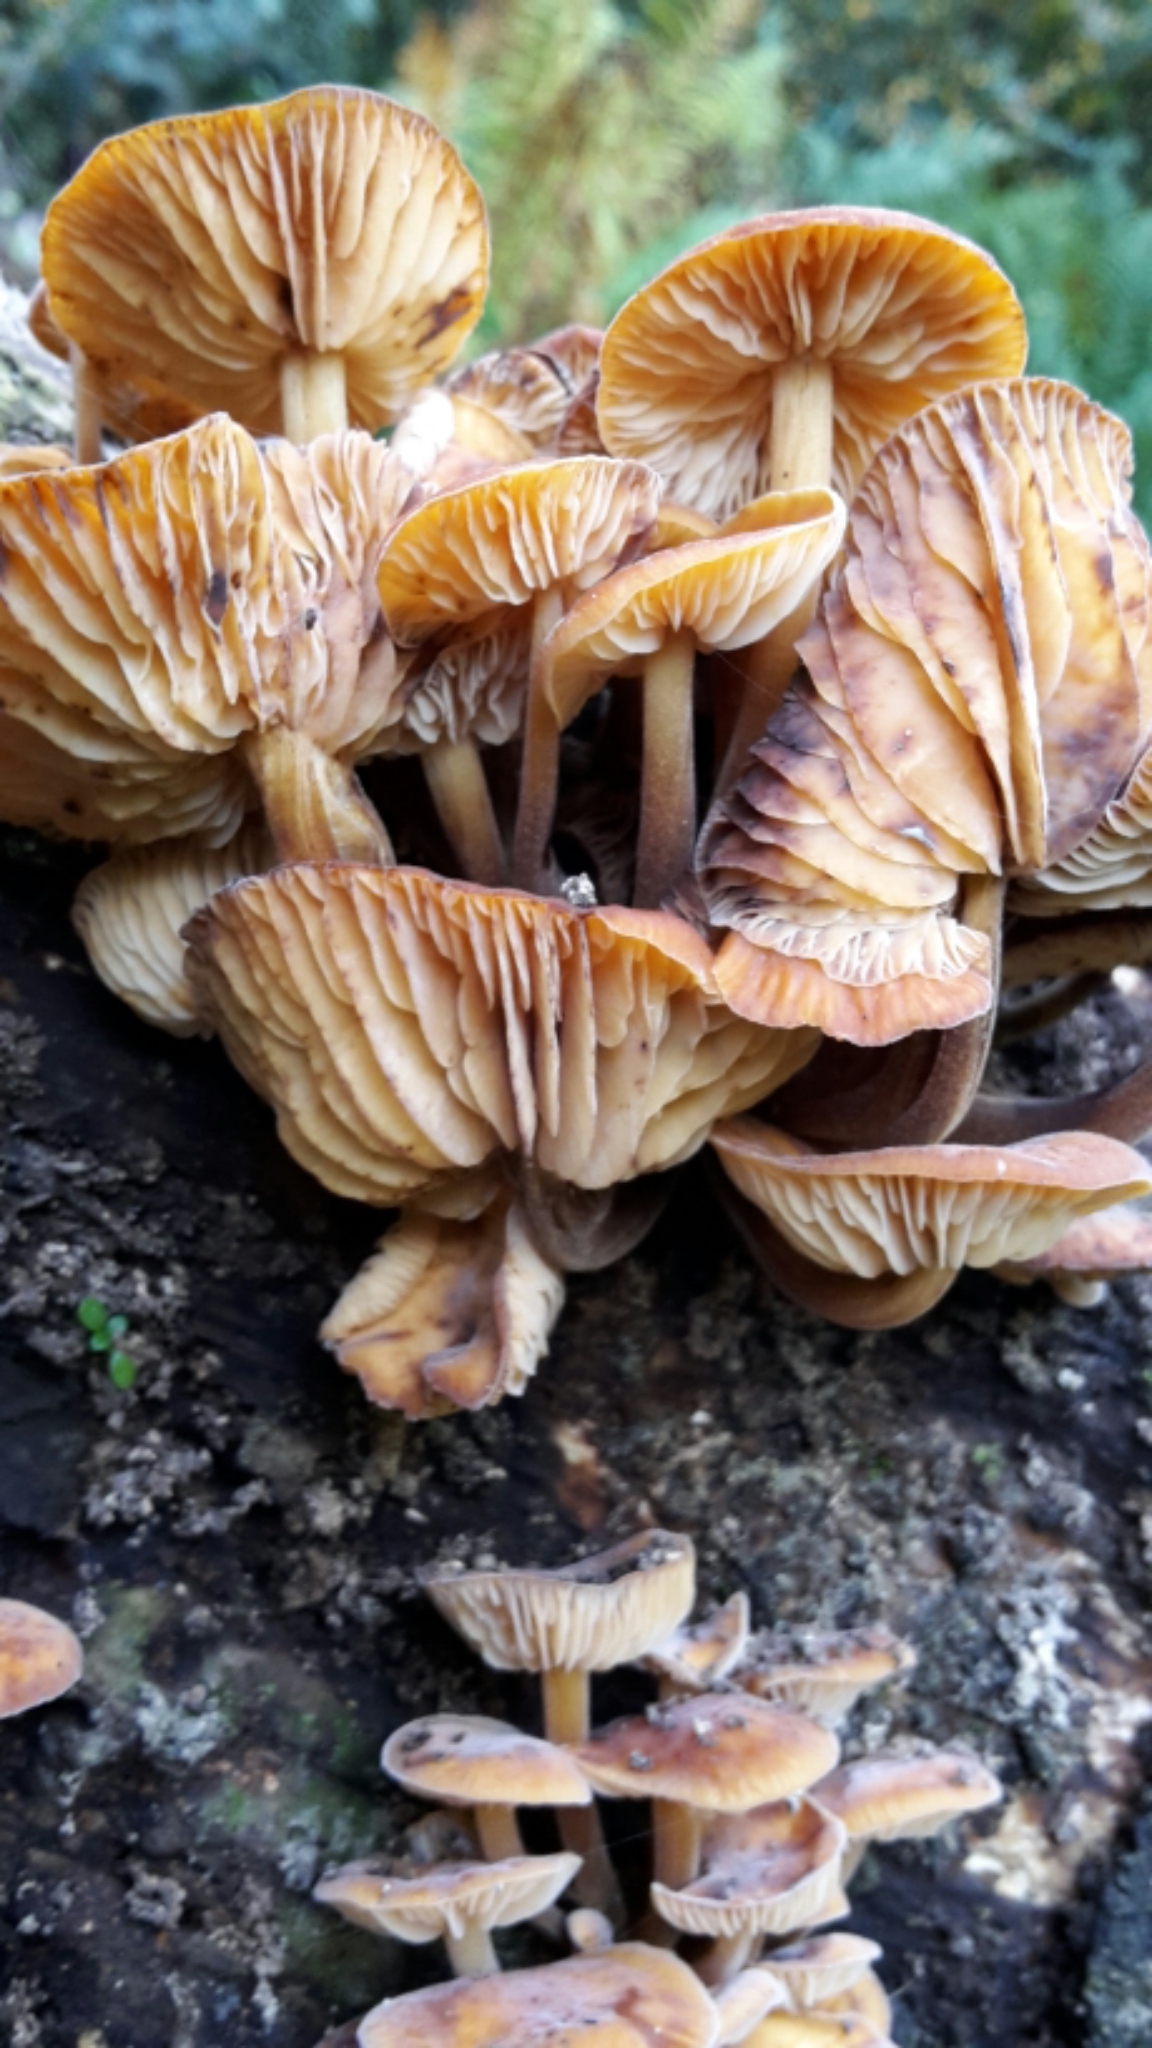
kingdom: Fungi
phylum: Basidiomycota
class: Agaricomycetes
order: Agaricales
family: Physalacriaceae
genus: Flammulina
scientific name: Flammulina velutipes
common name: Velvet shank
